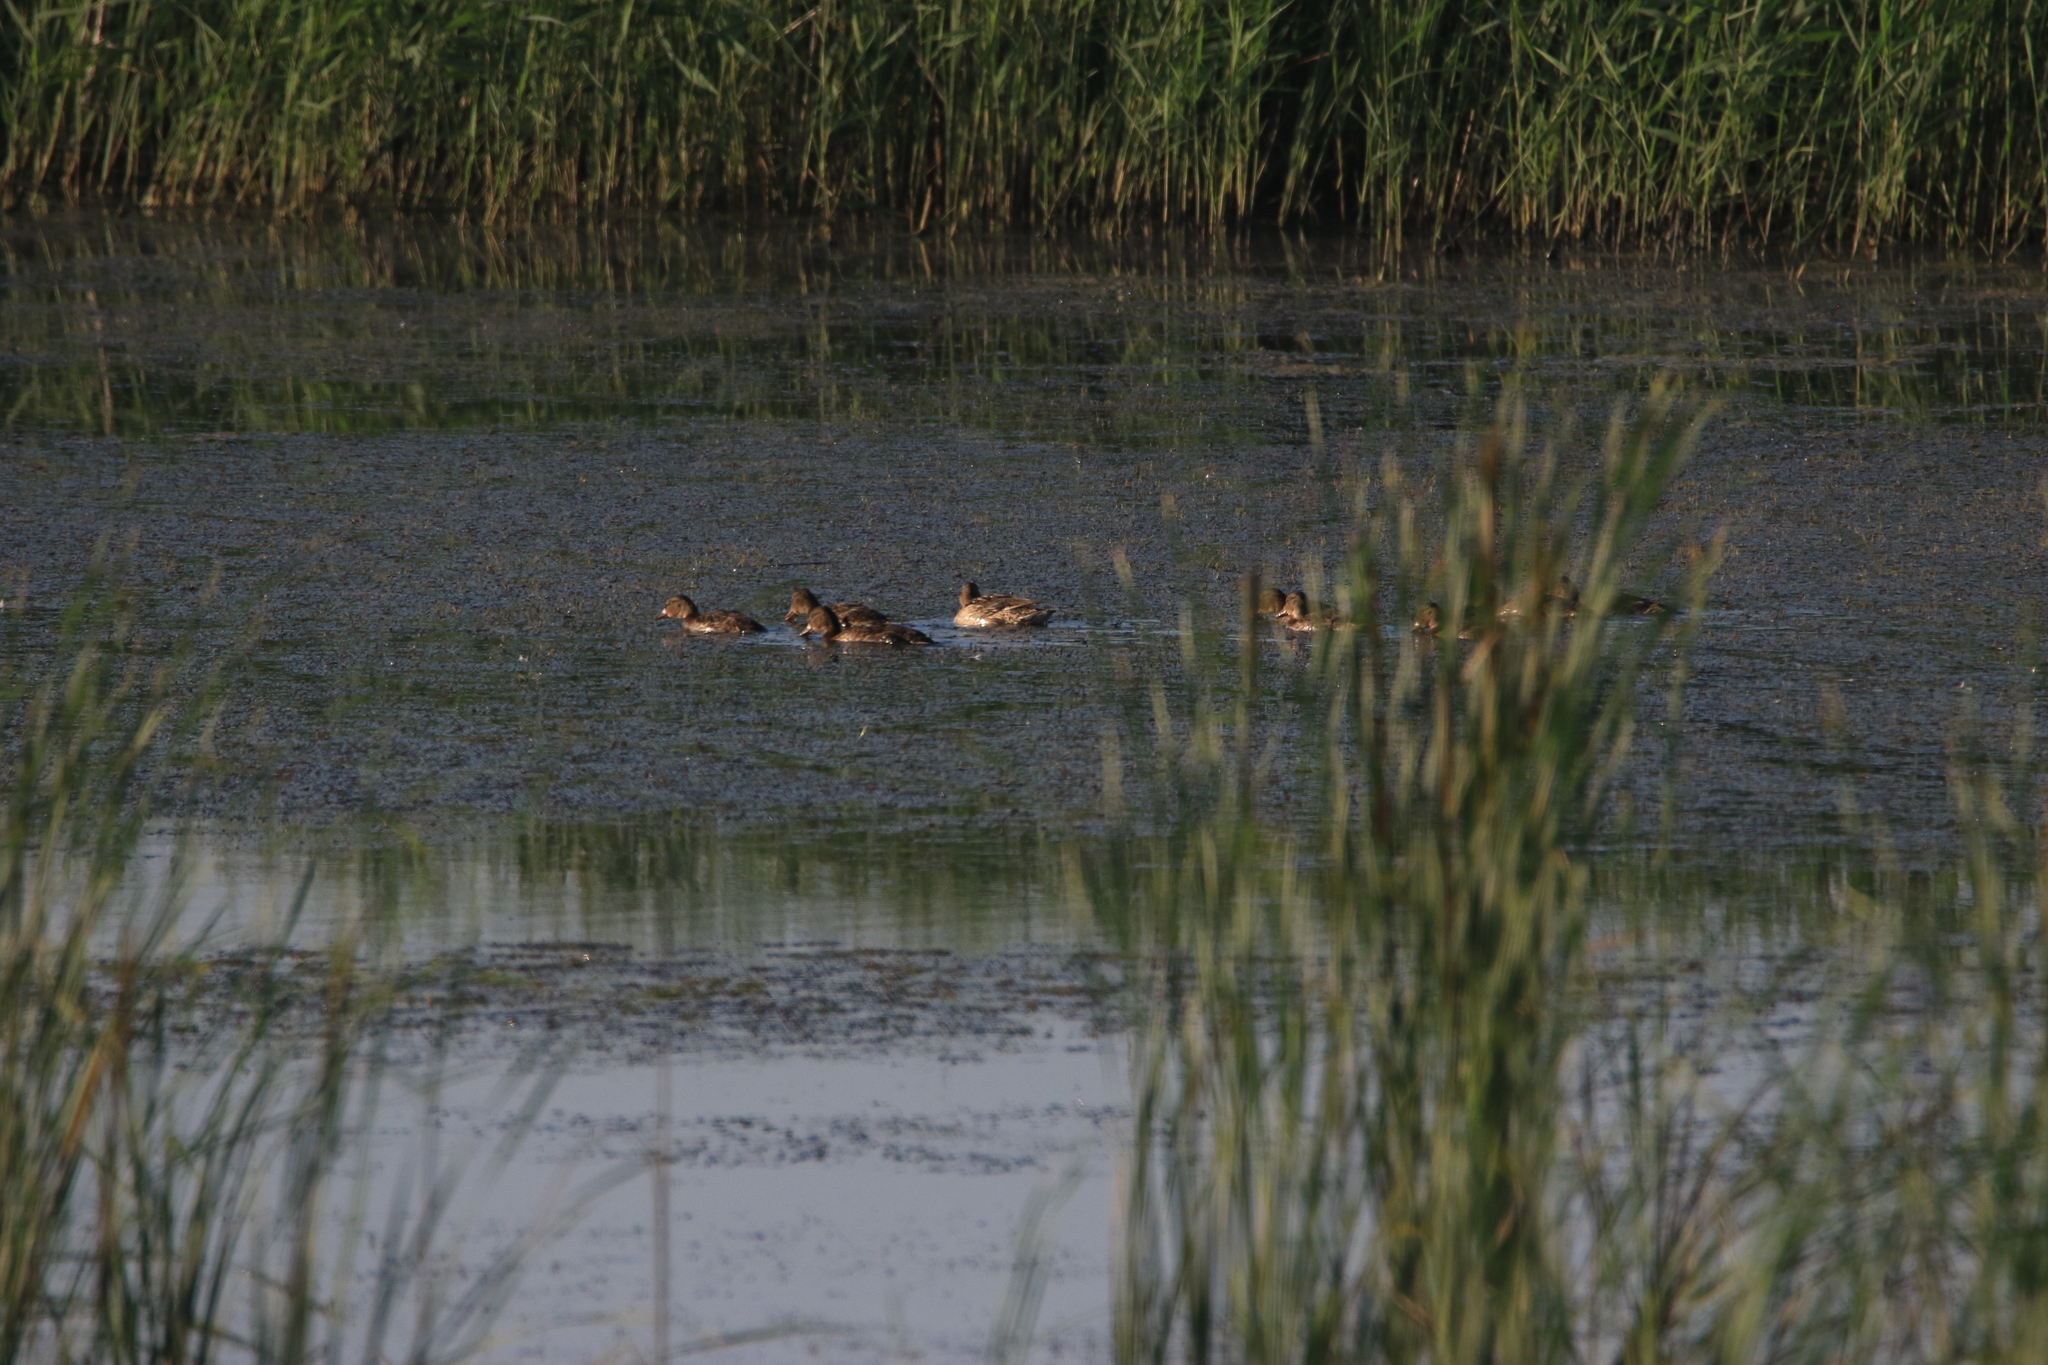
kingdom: Animalia
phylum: Chordata
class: Aves
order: Anseriformes
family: Anatidae
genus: Anas
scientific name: Anas platyrhynchos
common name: Mallard
